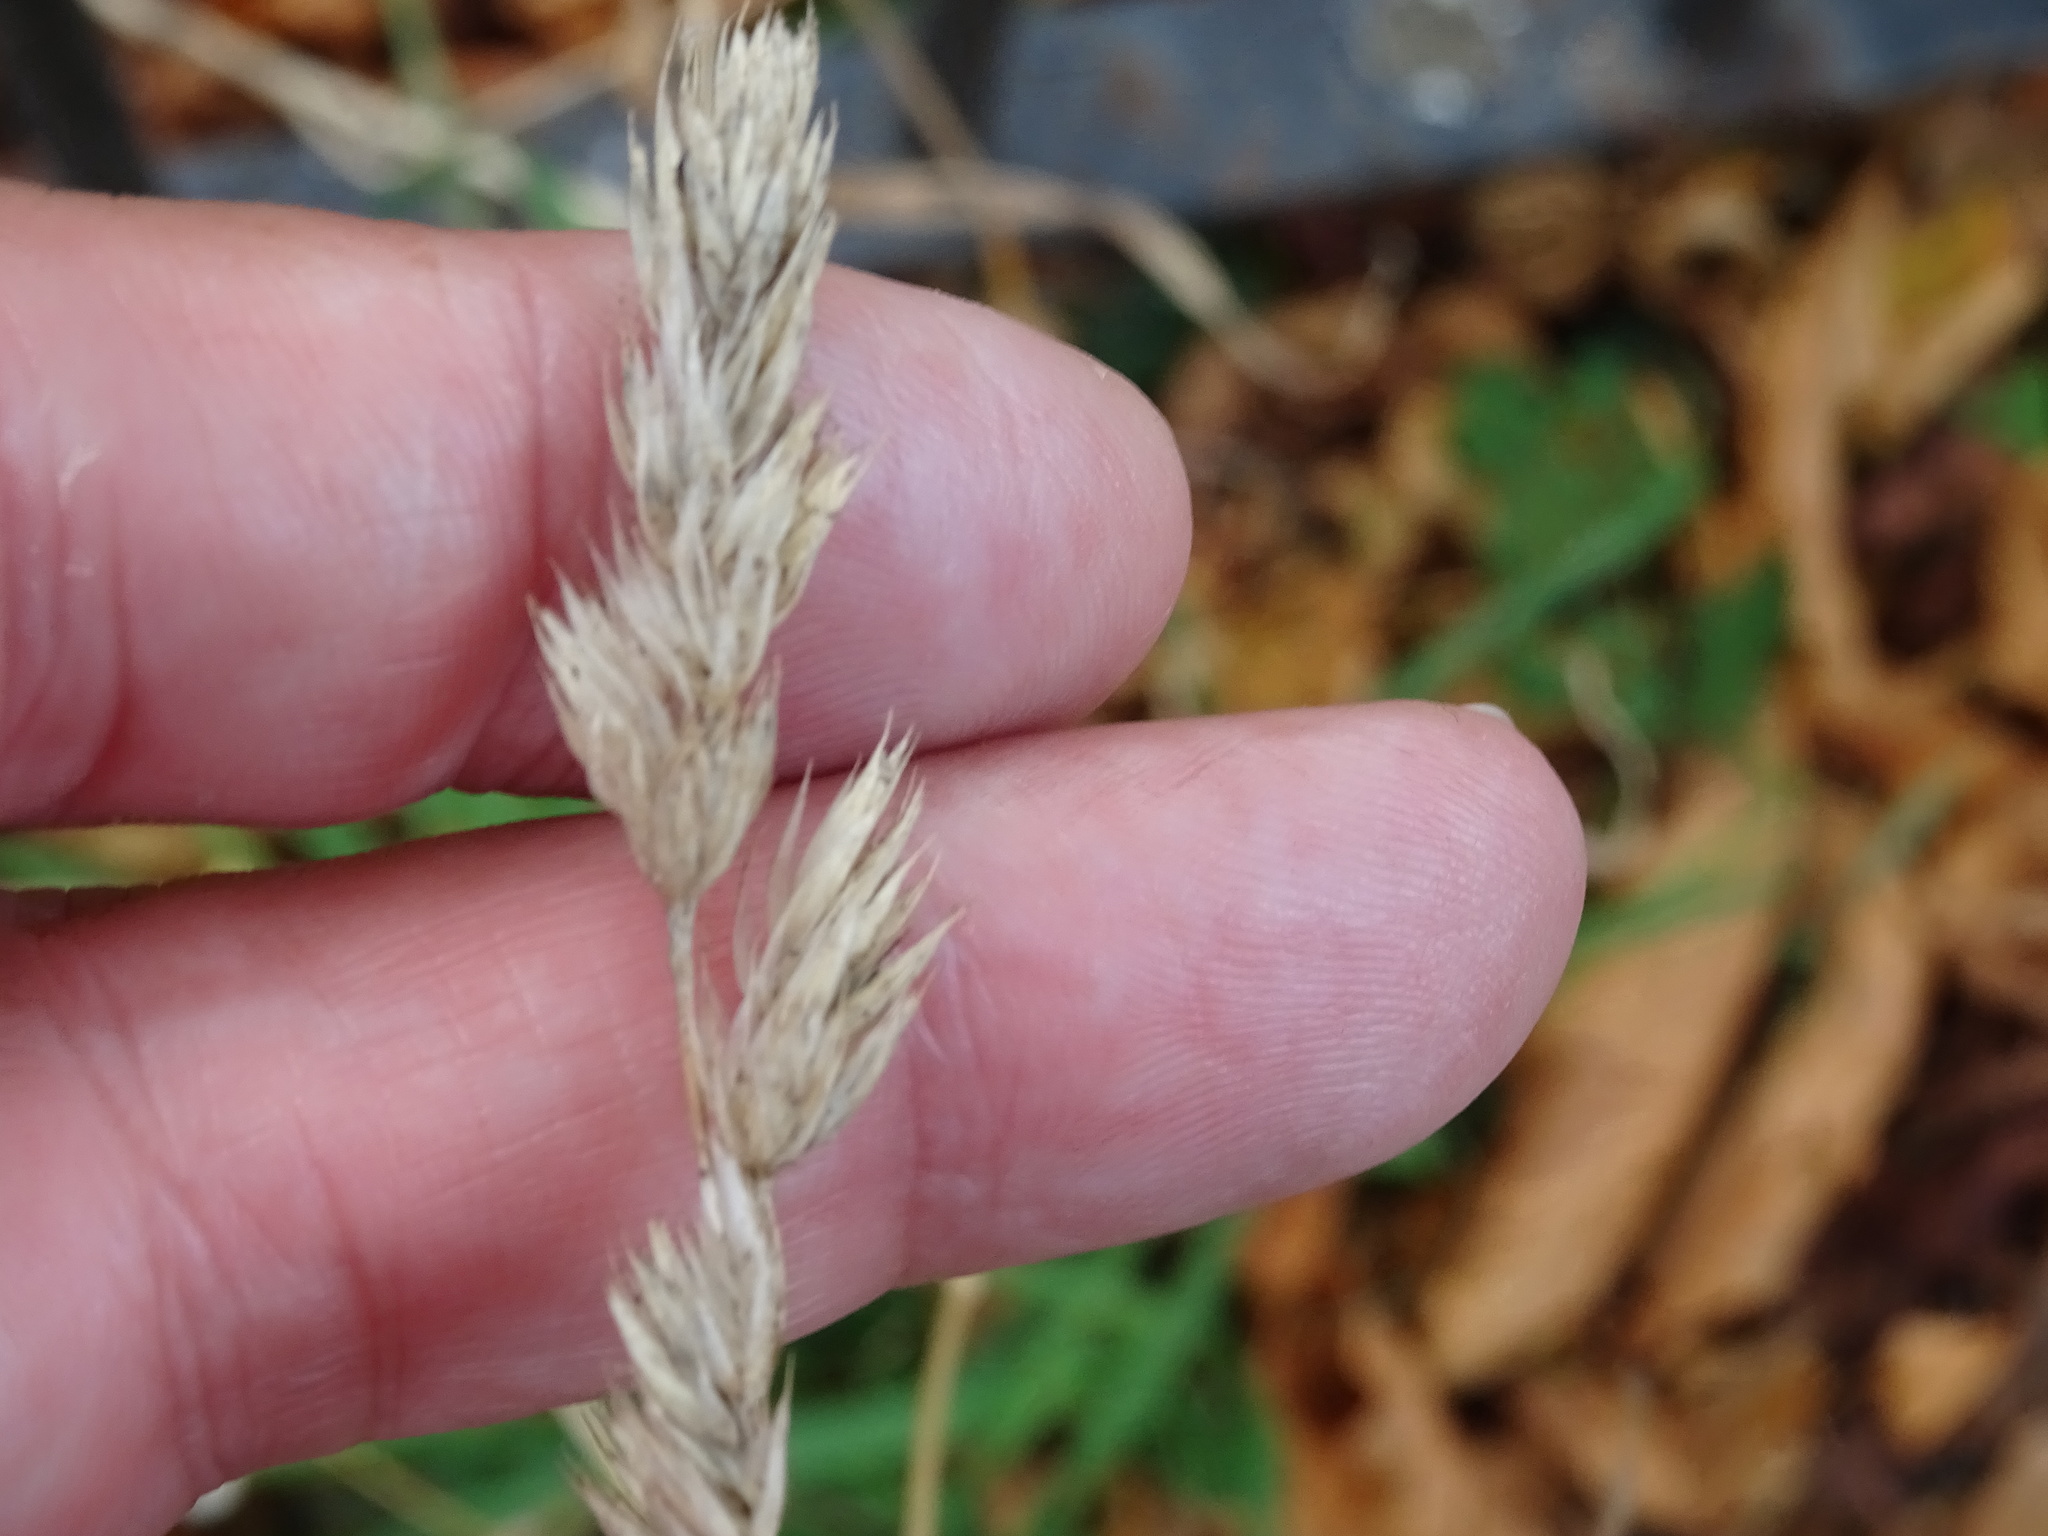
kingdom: Plantae
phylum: Tracheophyta
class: Liliopsida
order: Poales
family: Poaceae
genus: Dactylis
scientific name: Dactylis glomerata
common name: Orchardgrass
